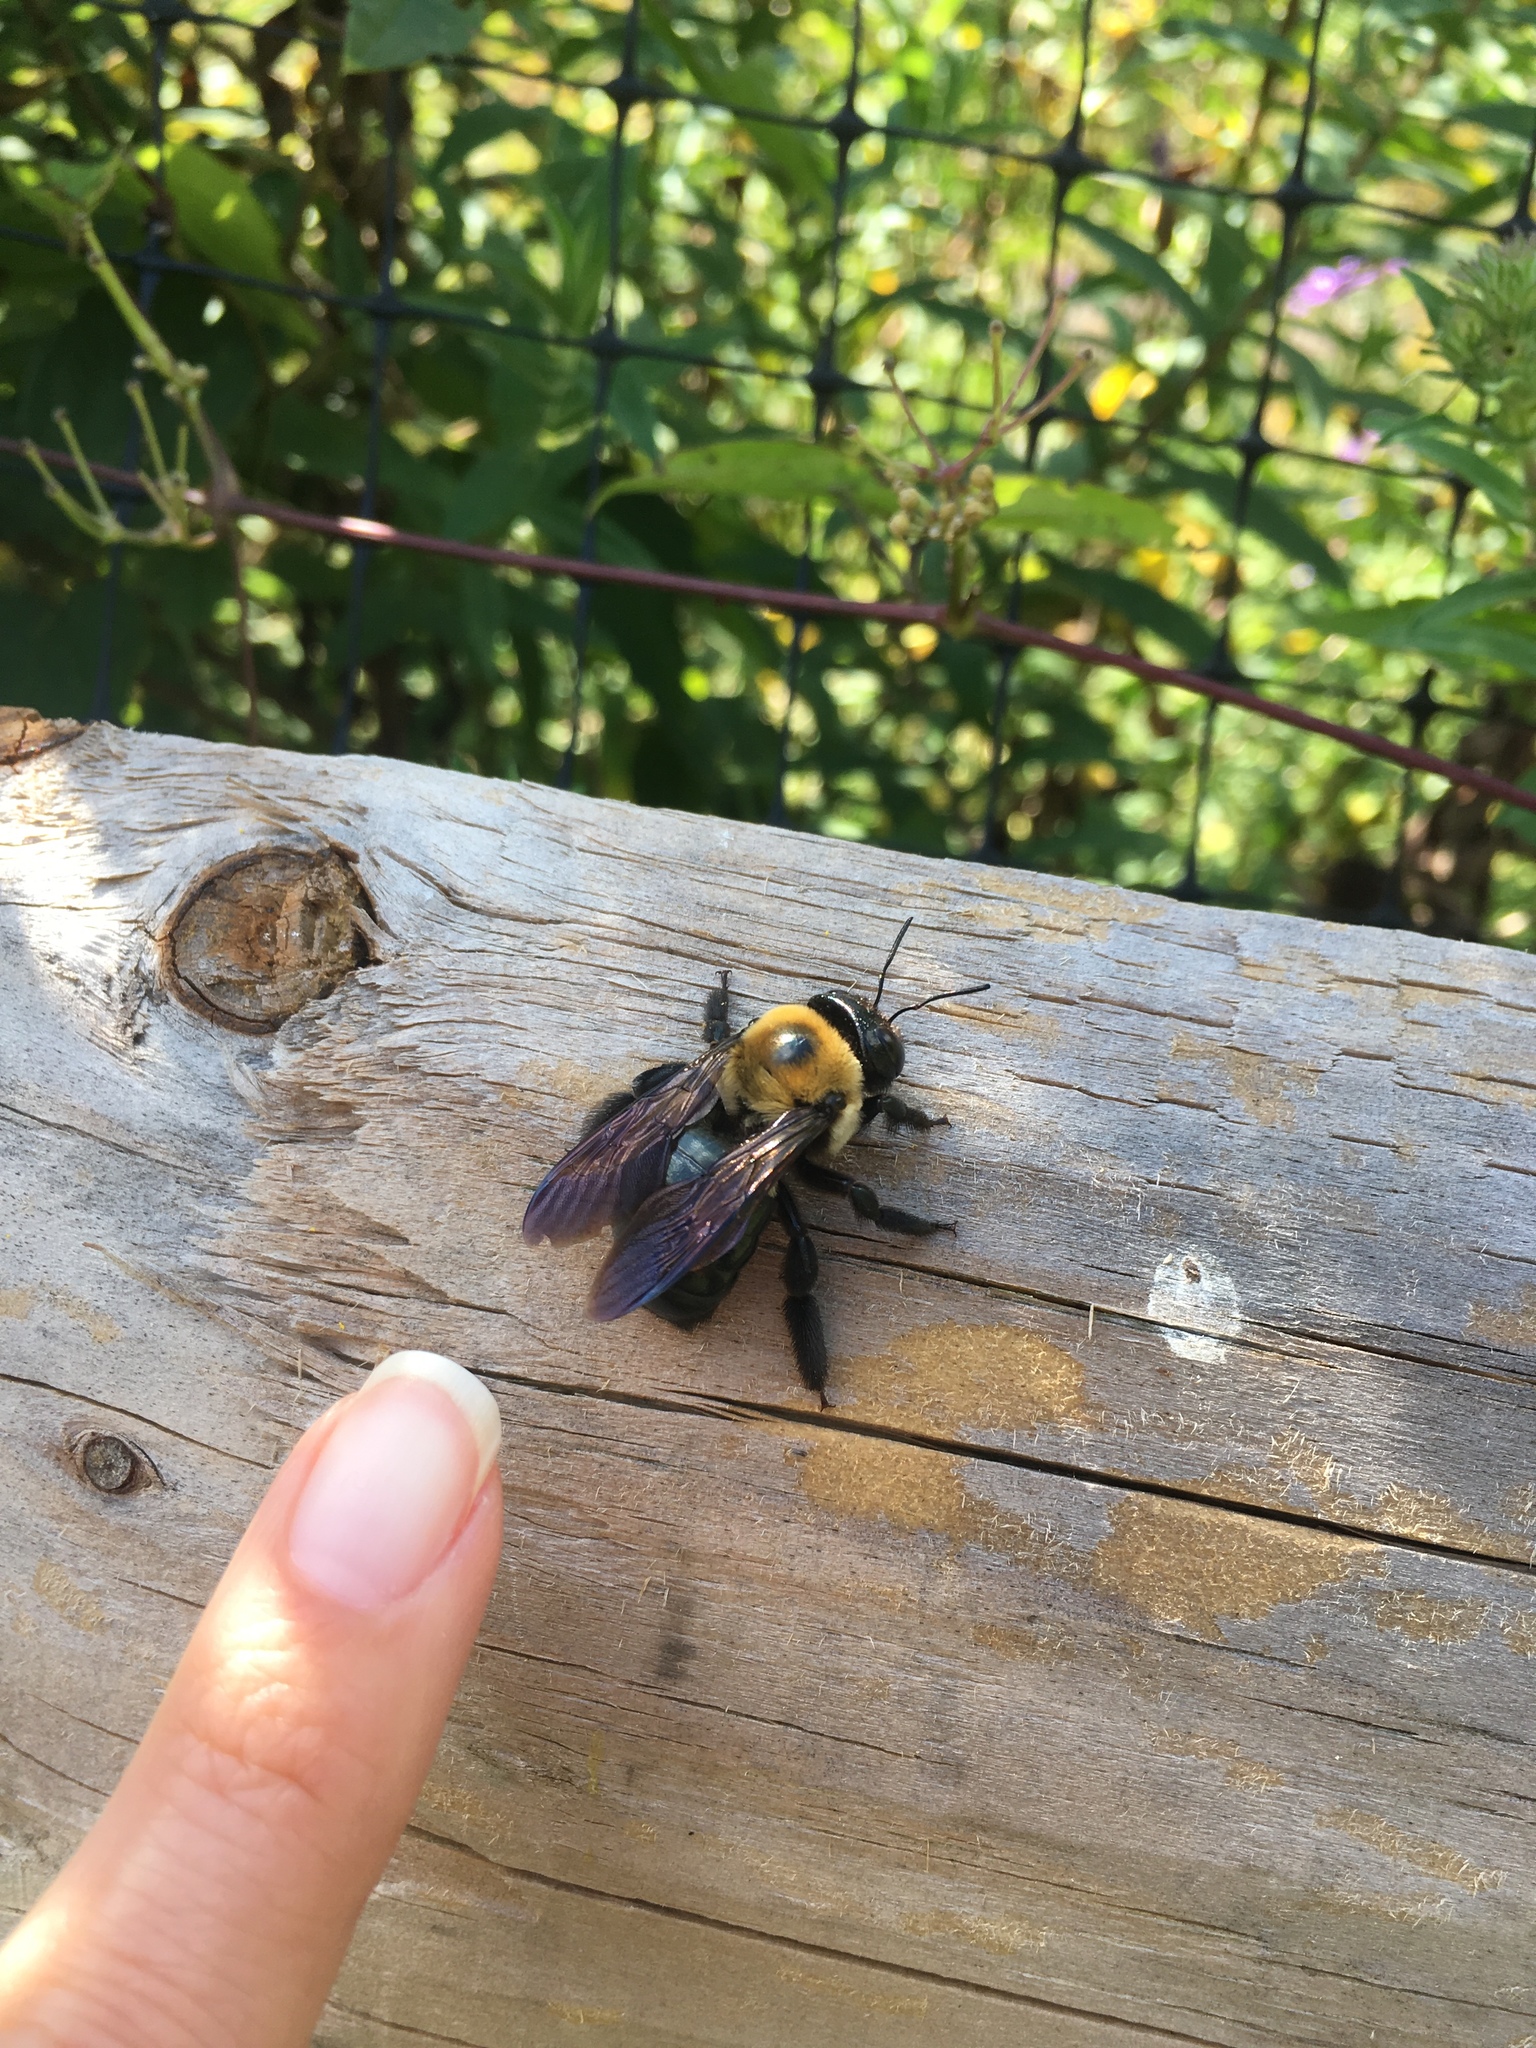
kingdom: Animalia
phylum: Arthropoda
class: Insecta
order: Hymenoptera
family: Apidae
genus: Xylocopa
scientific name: Xylocopa virginica
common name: Carpenter bee
